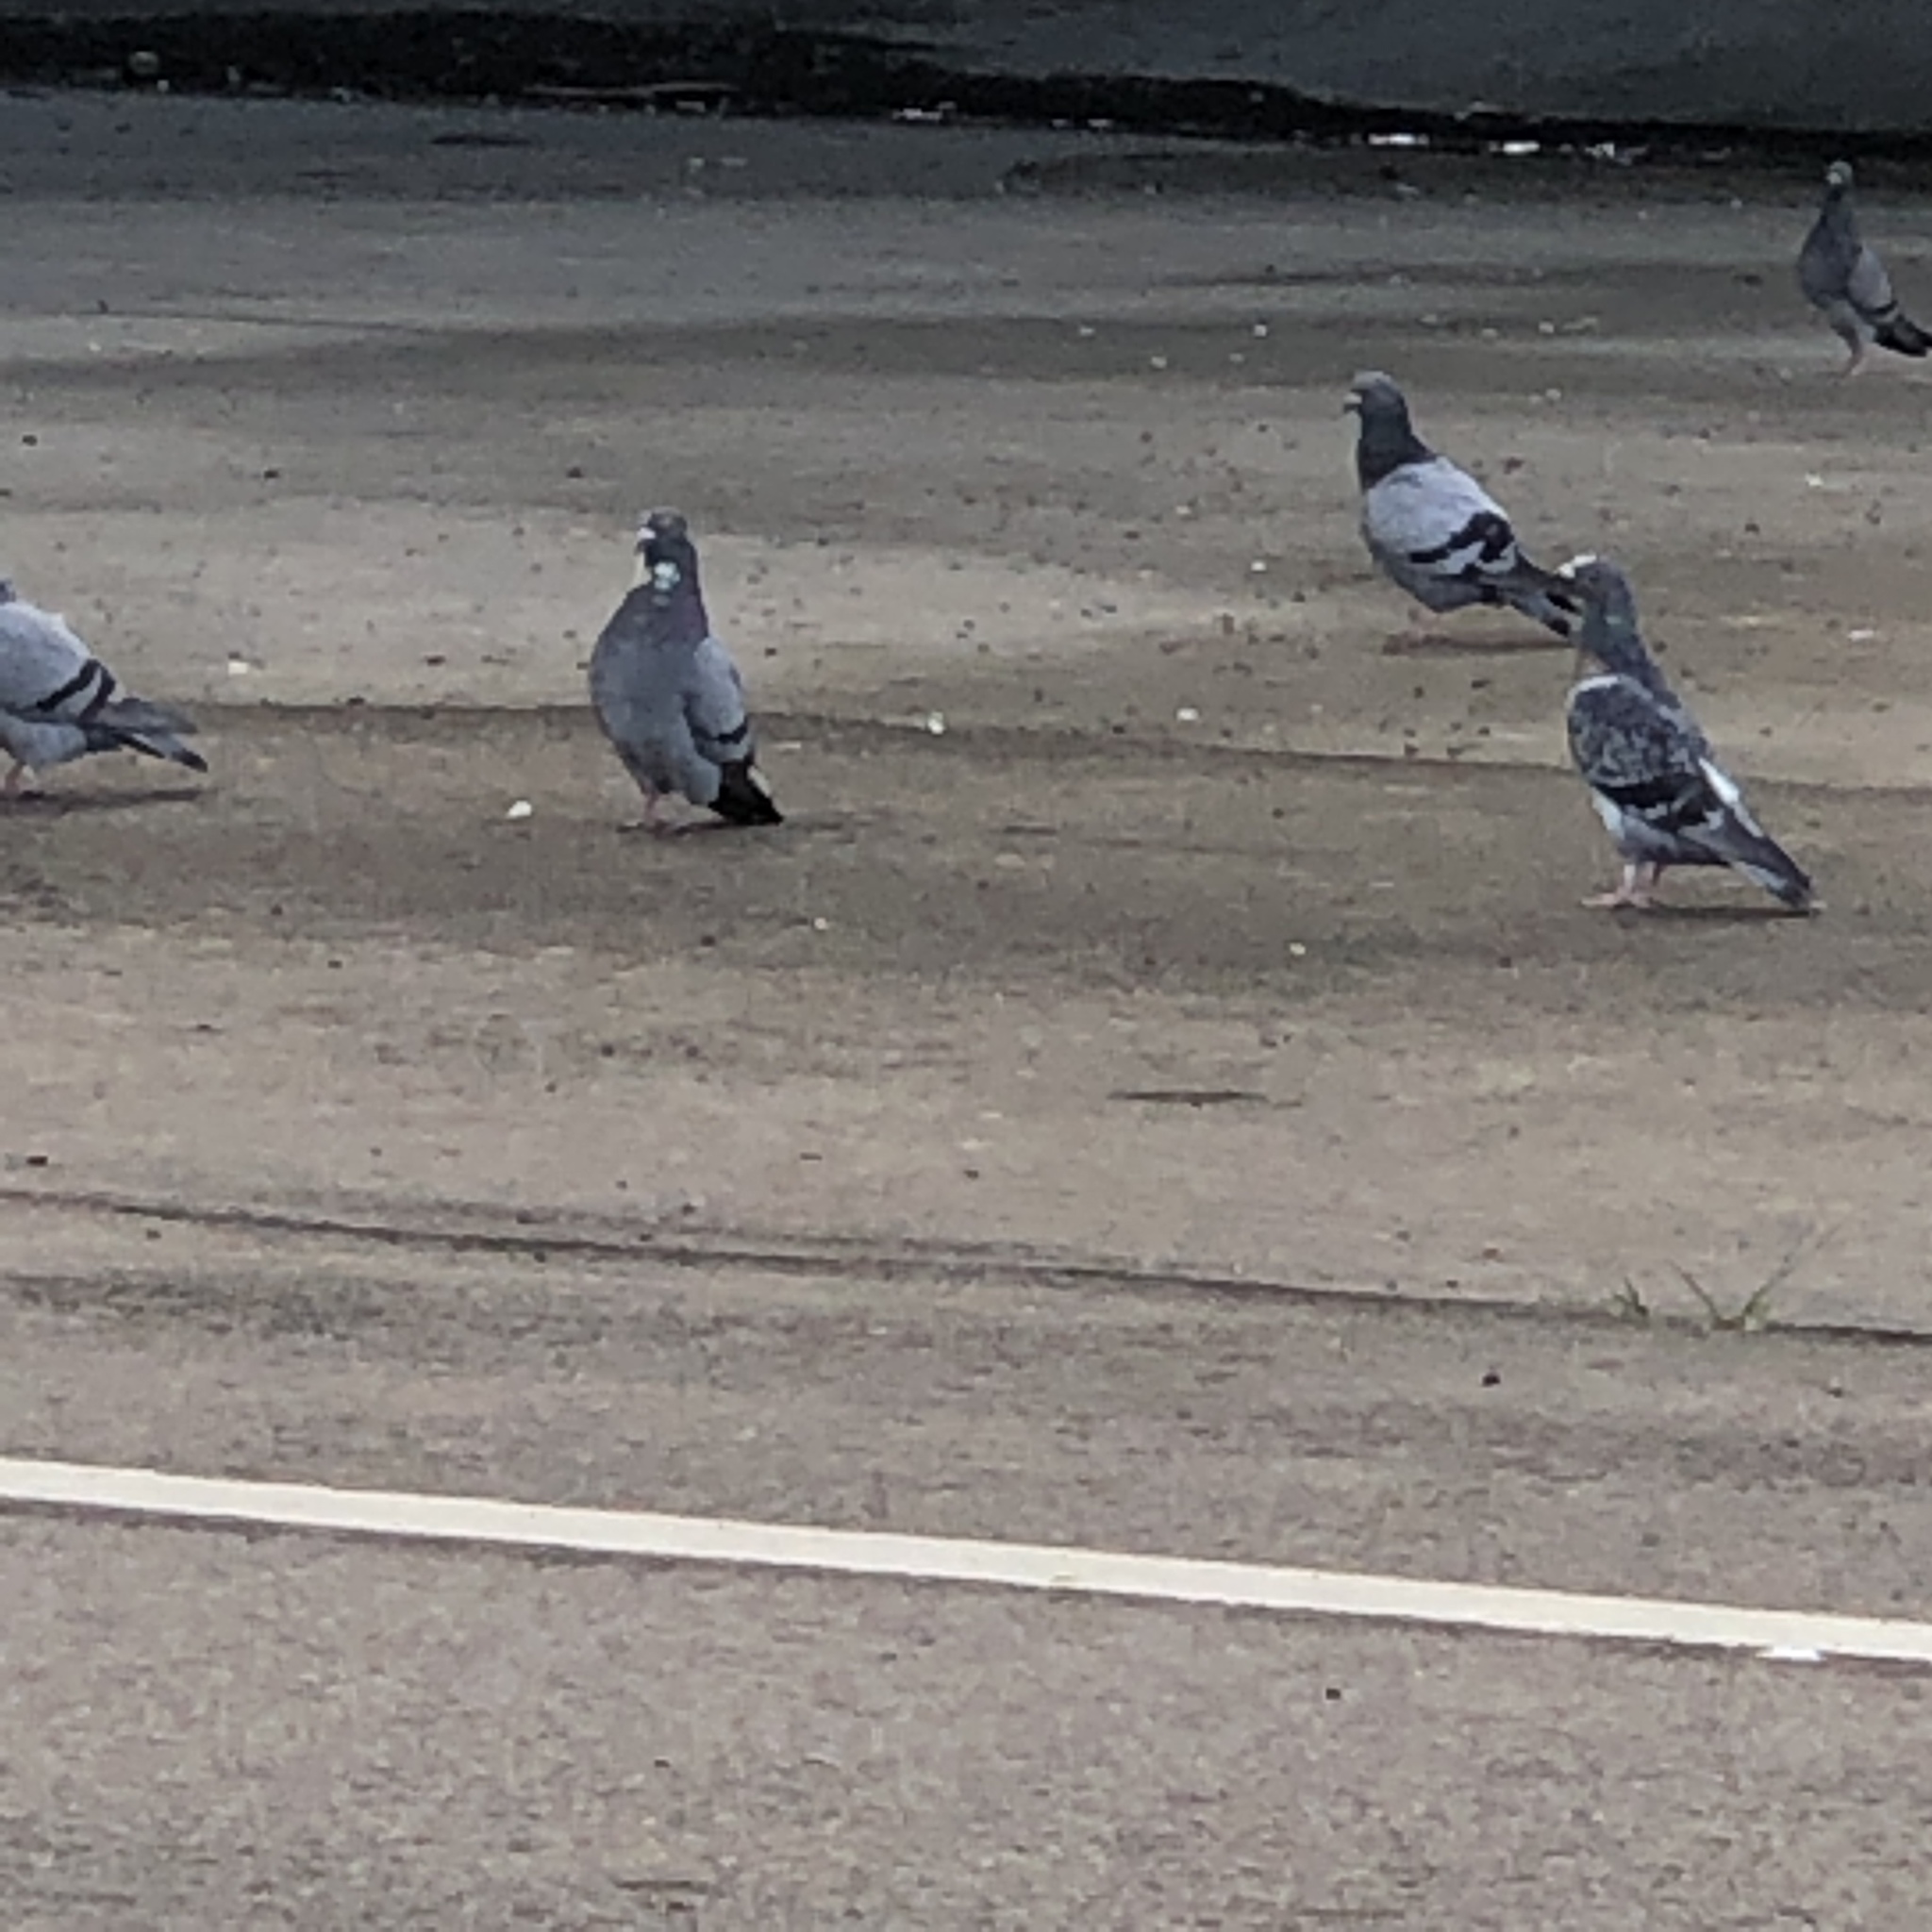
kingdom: Animalia
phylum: Chordata
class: Aves
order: Columbiformes
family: Columbidae
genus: Columba
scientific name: Columba livia
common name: Rock pigeon
